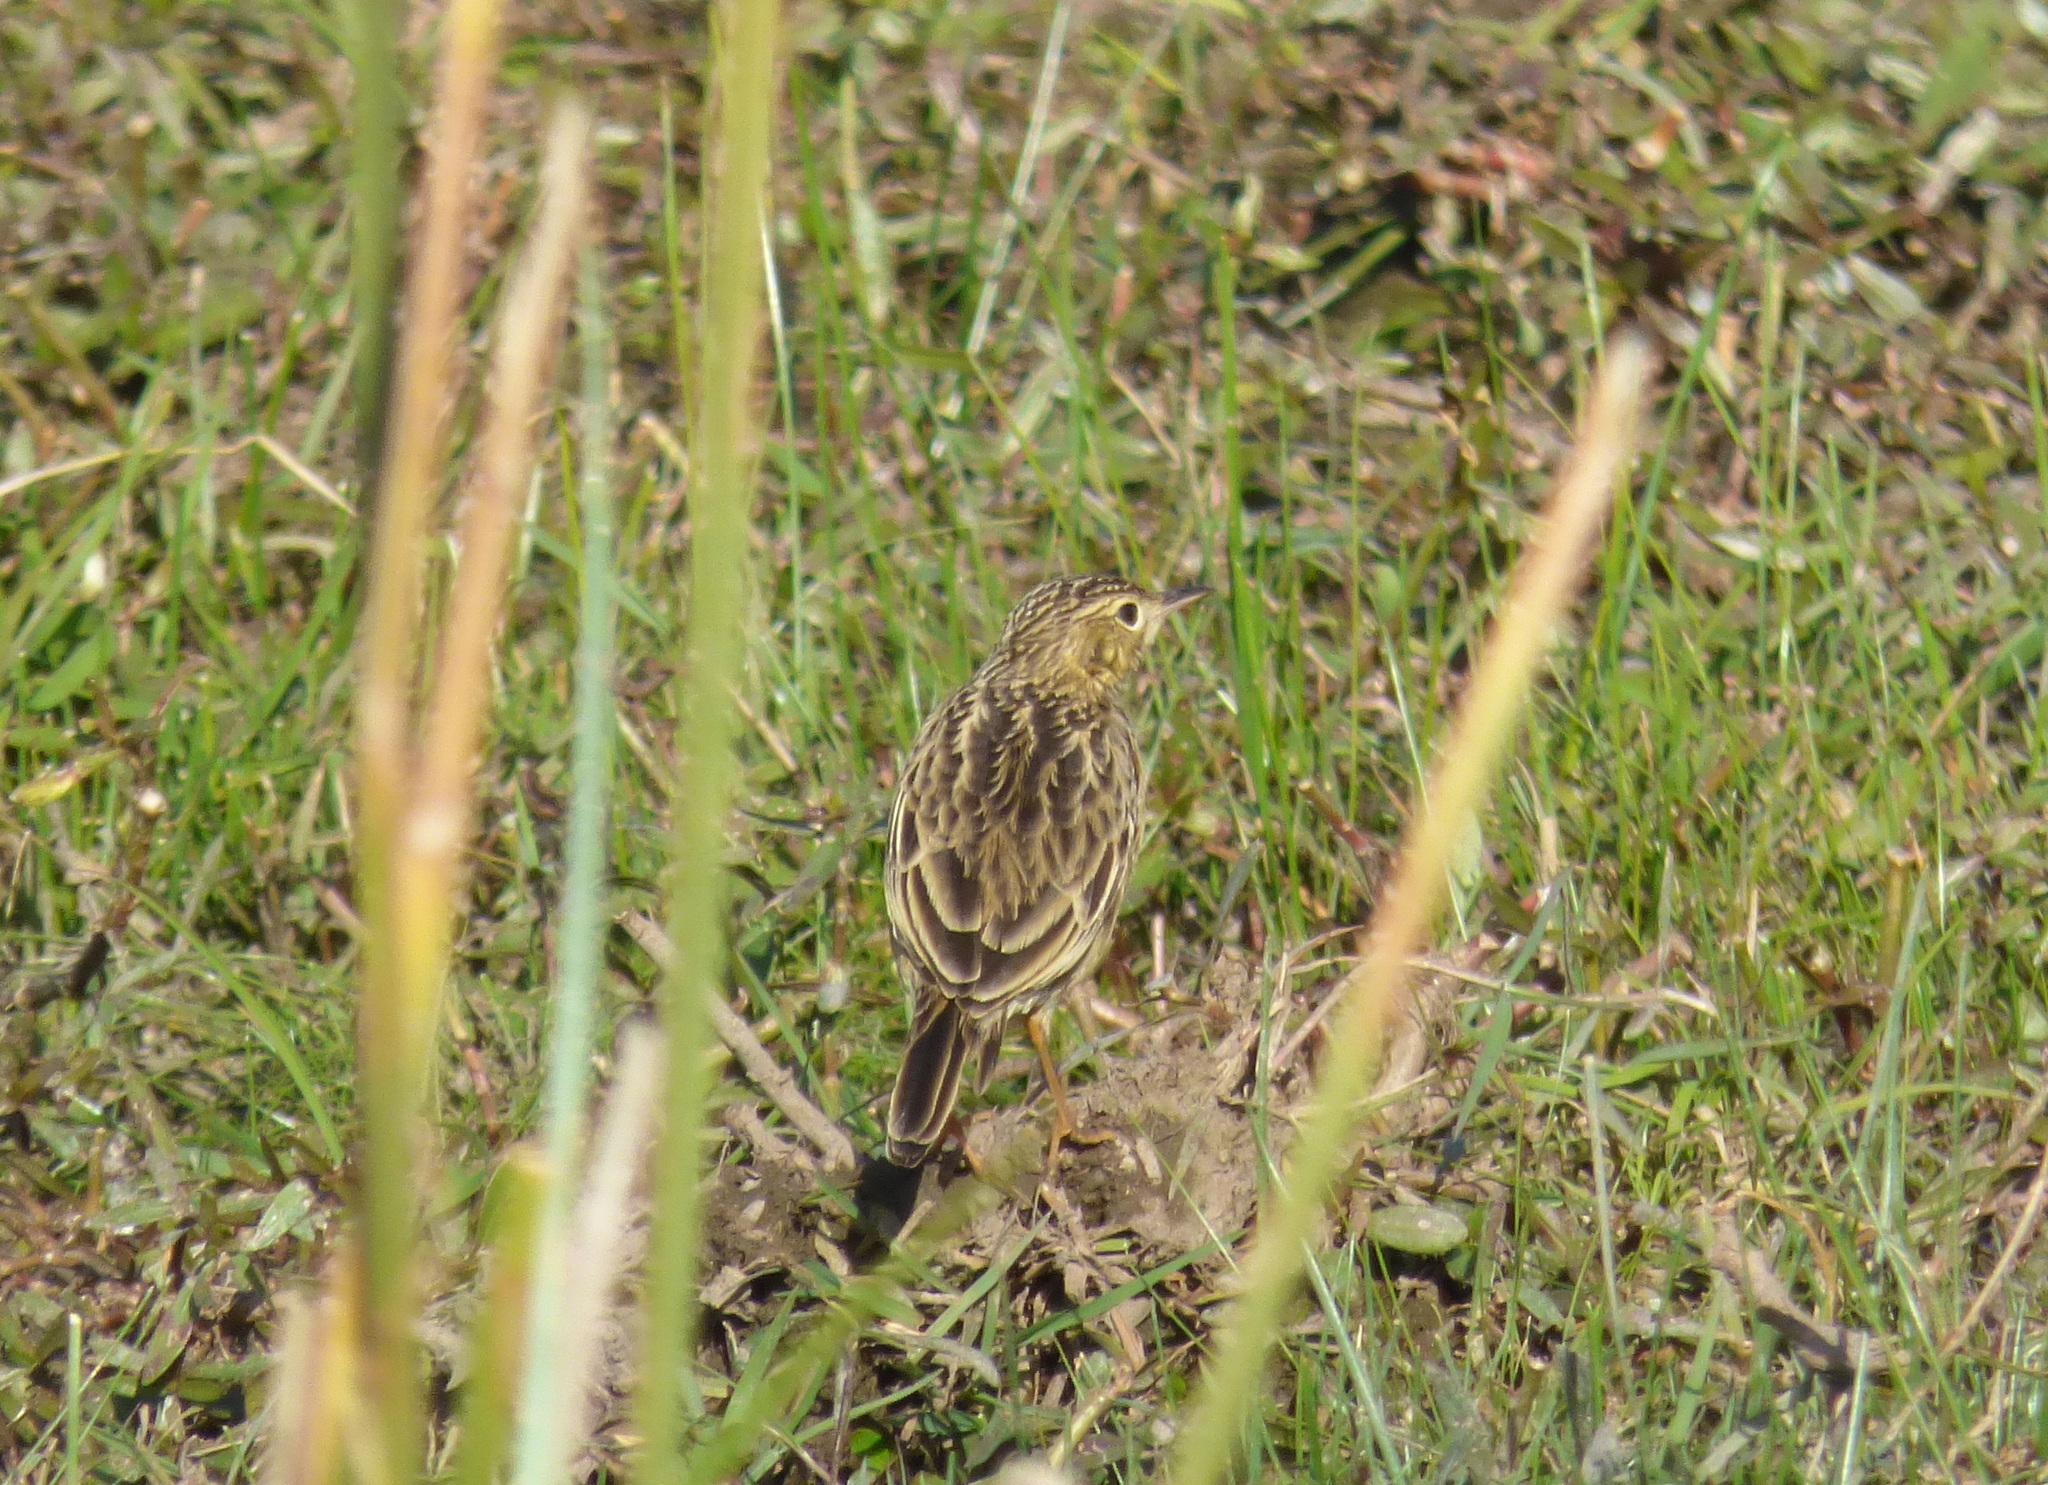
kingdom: Animalia
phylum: Chordata
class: Aves
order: Passeriformes
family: Motacillidae
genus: Anthus
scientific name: Anthus chii
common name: Yellowish pipit
